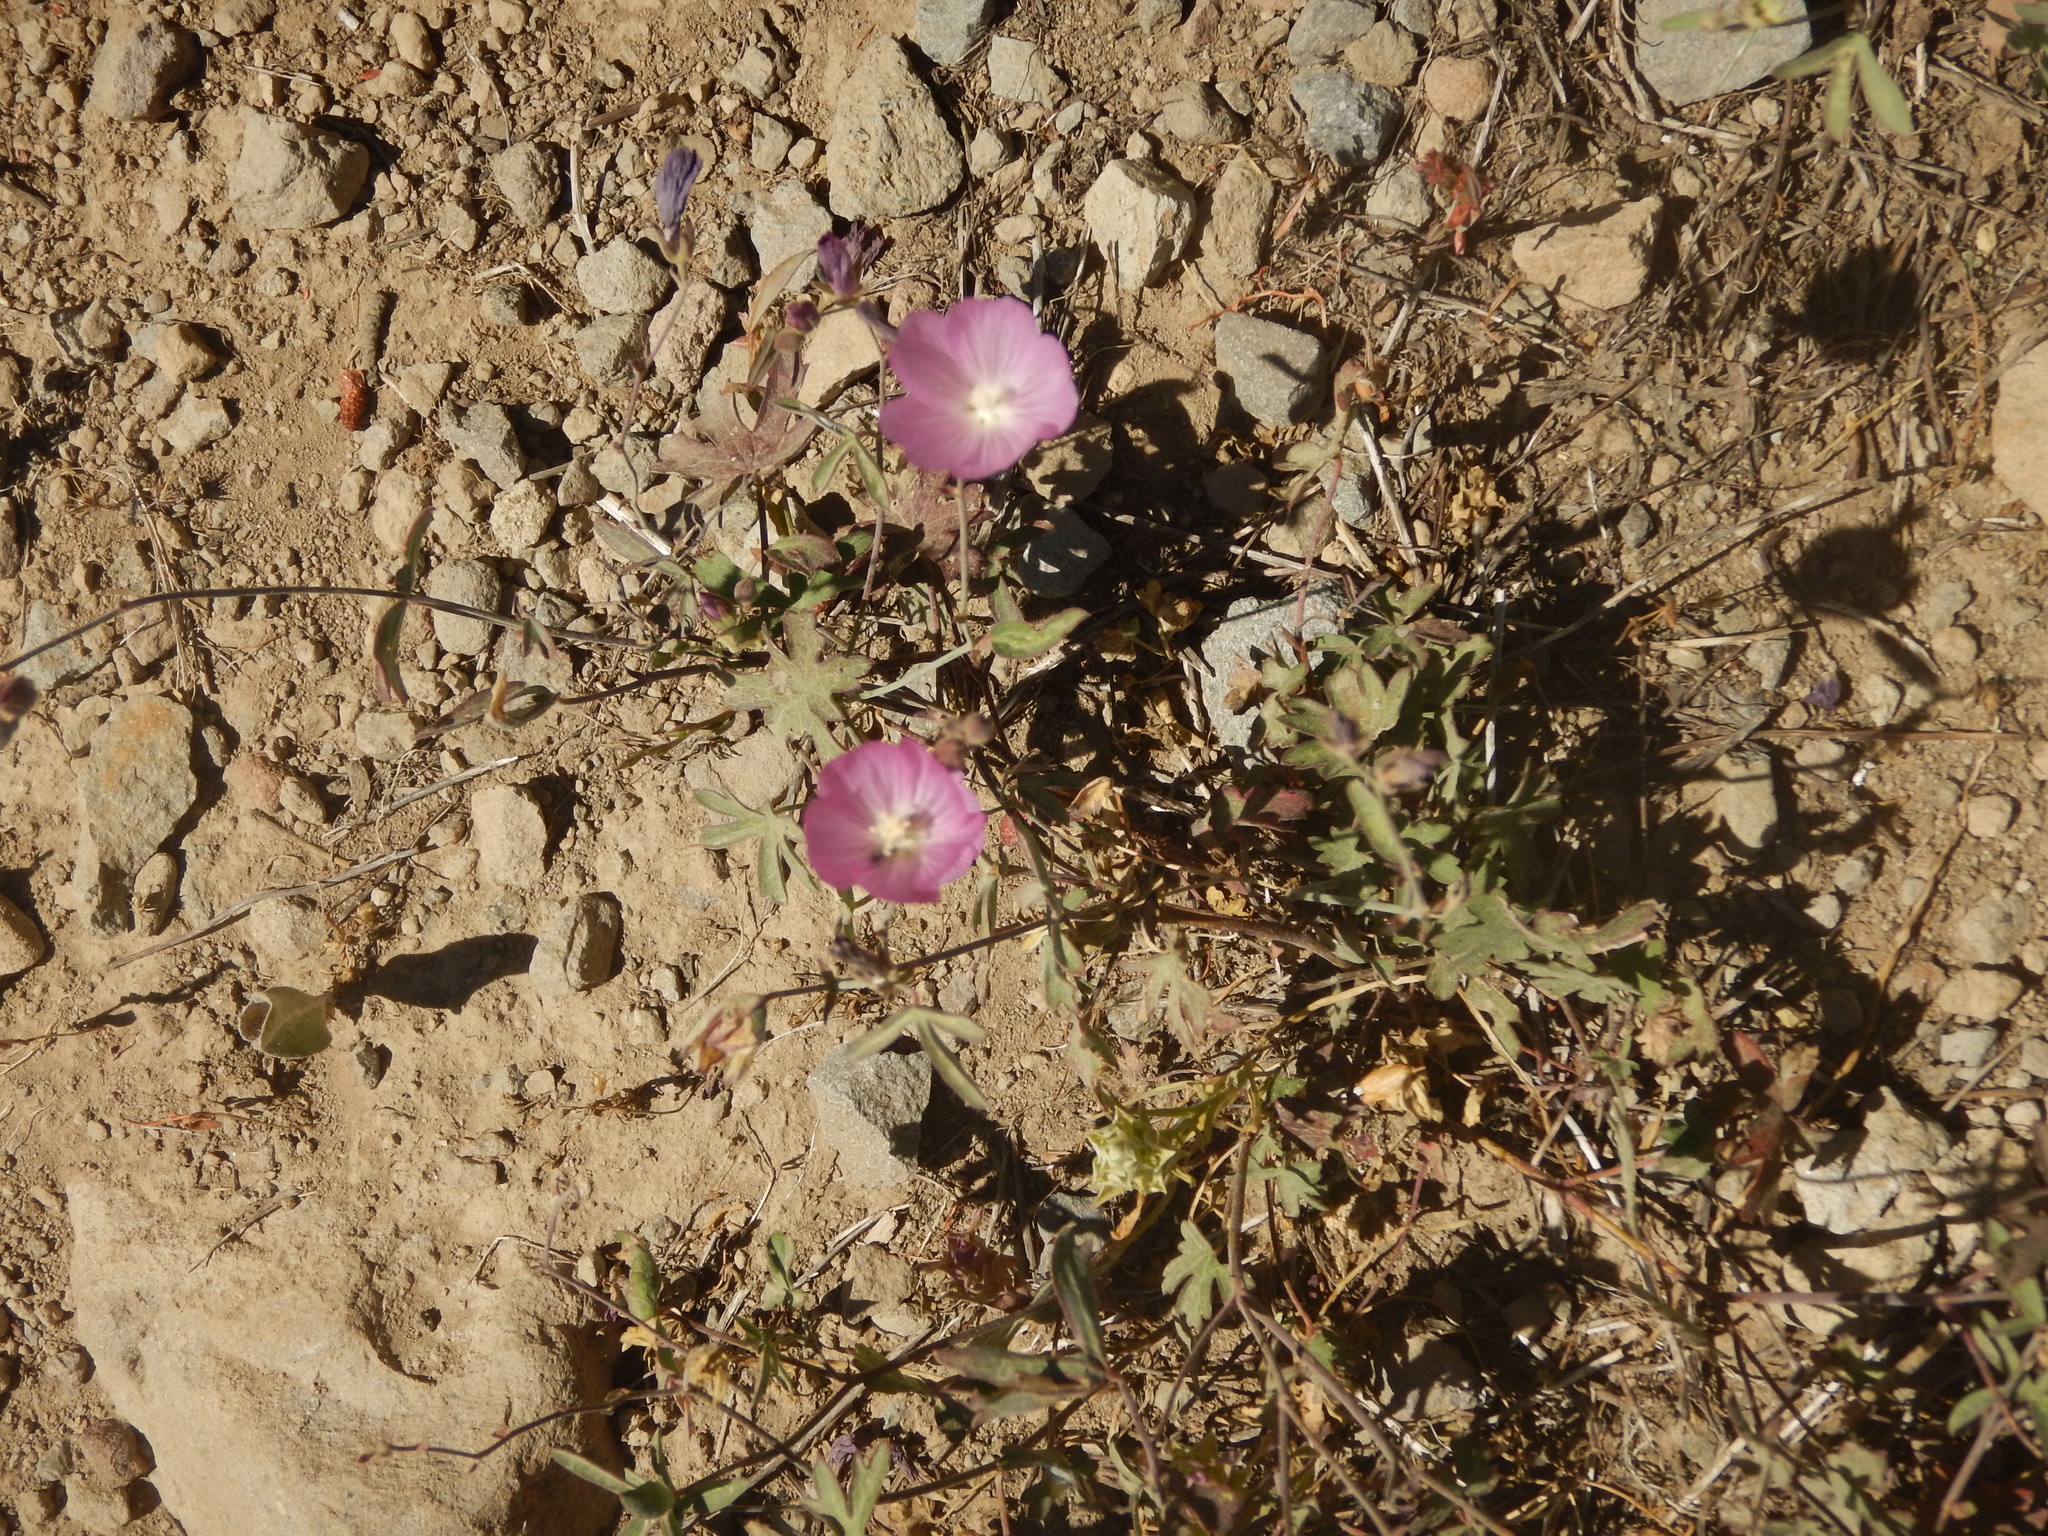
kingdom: Plantae
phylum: Tracheophyta
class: Magnoliopsida
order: Malvales
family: Malvaceae
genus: Sidalcea
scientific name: Sidalcea glaucescens
